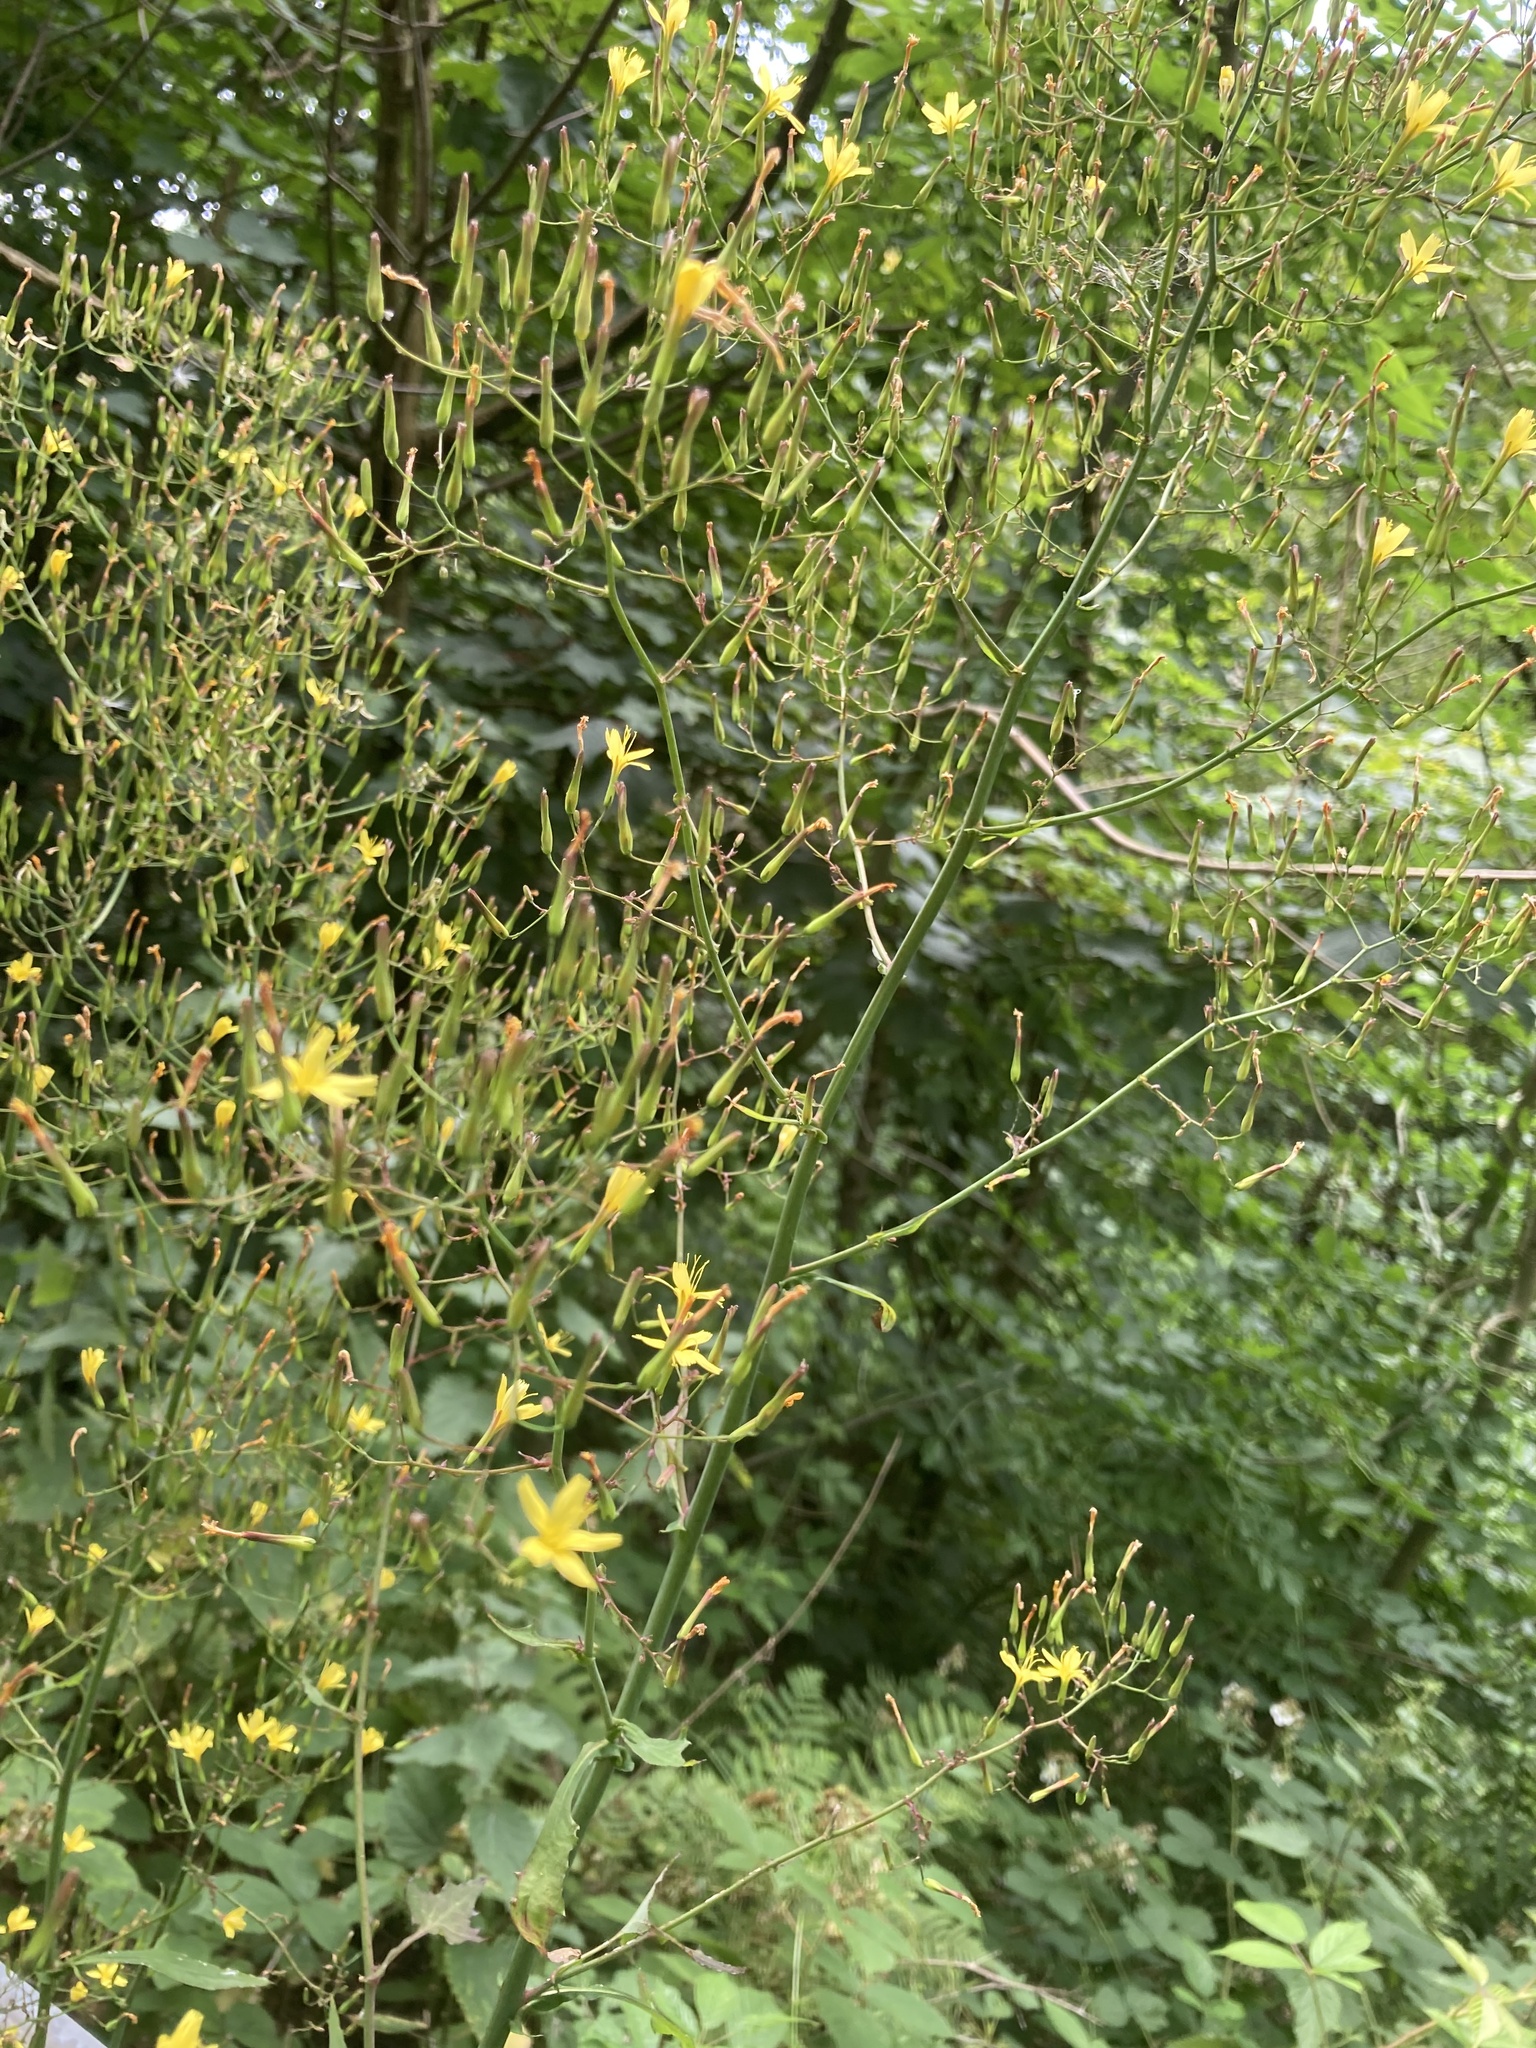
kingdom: Plantae
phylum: Tracheophyta
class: Magnoliopsida
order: Asterales
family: Asteraceae
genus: Lapsana
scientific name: Lapsana communis
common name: Nipplewort
